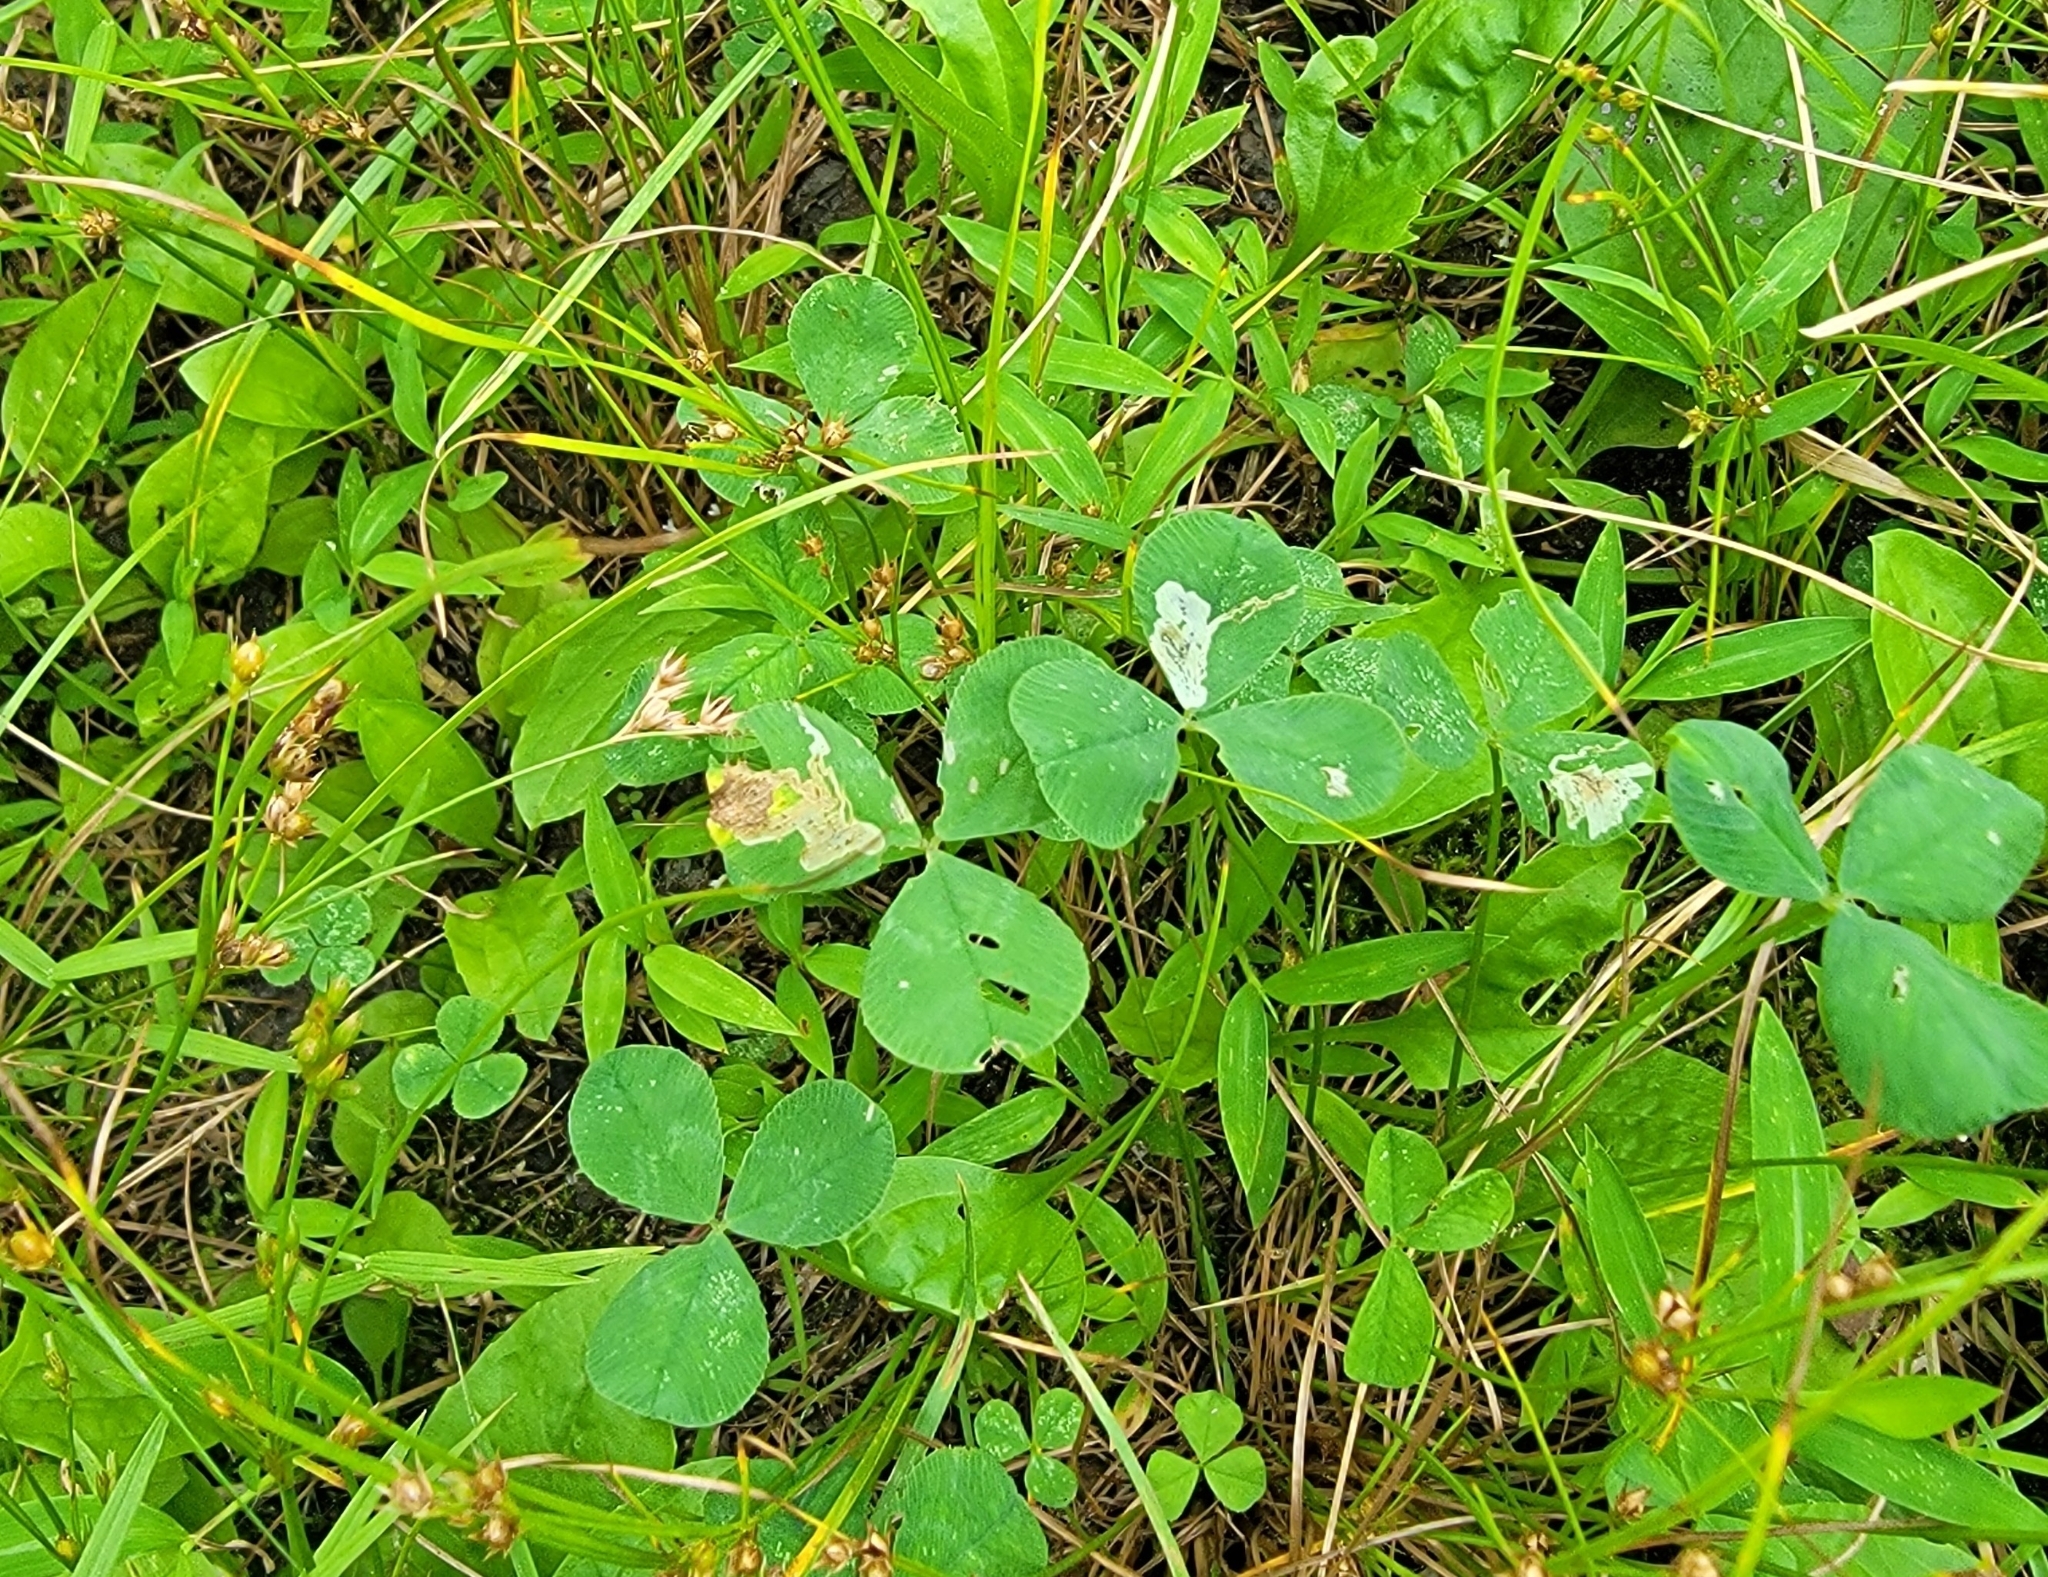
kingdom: Plantae
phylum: Tracheophyta
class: Magnoliopsida
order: Fabales
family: Fabaceae
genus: Trifolium
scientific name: Trifolium repens
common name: White clover
